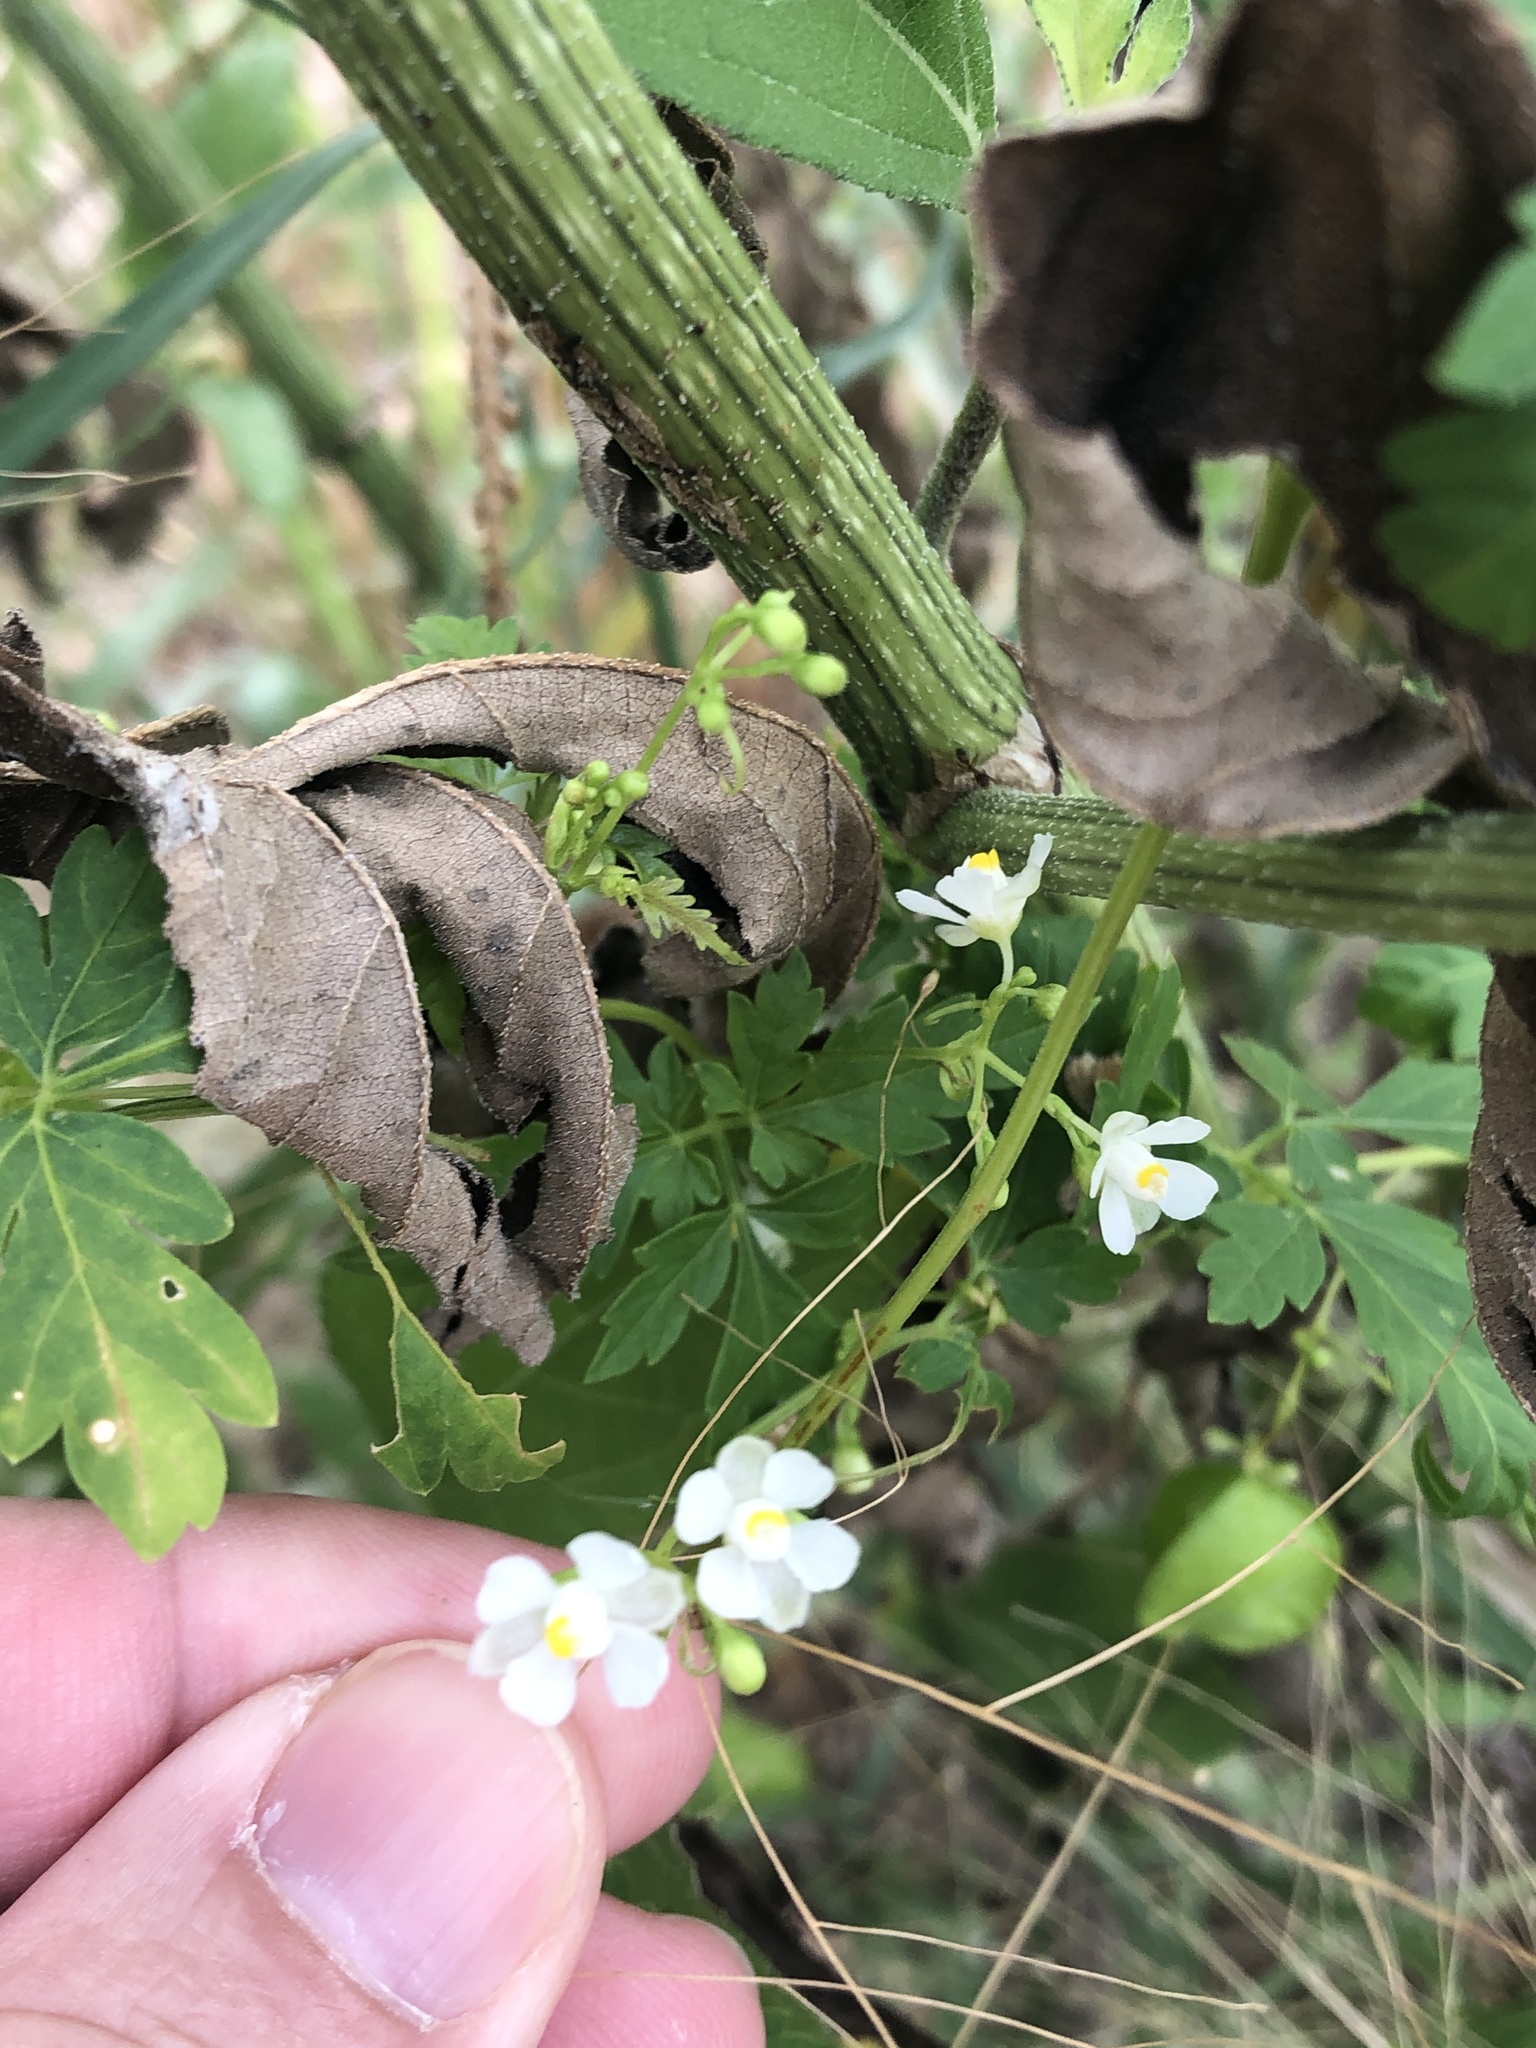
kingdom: Plantae
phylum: Tracheophyta
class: Magnoliopsida
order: Sapindales
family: Sapindaceae
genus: Cardiospermum
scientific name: Cardiospermum halicacabum
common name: Balloon vine
